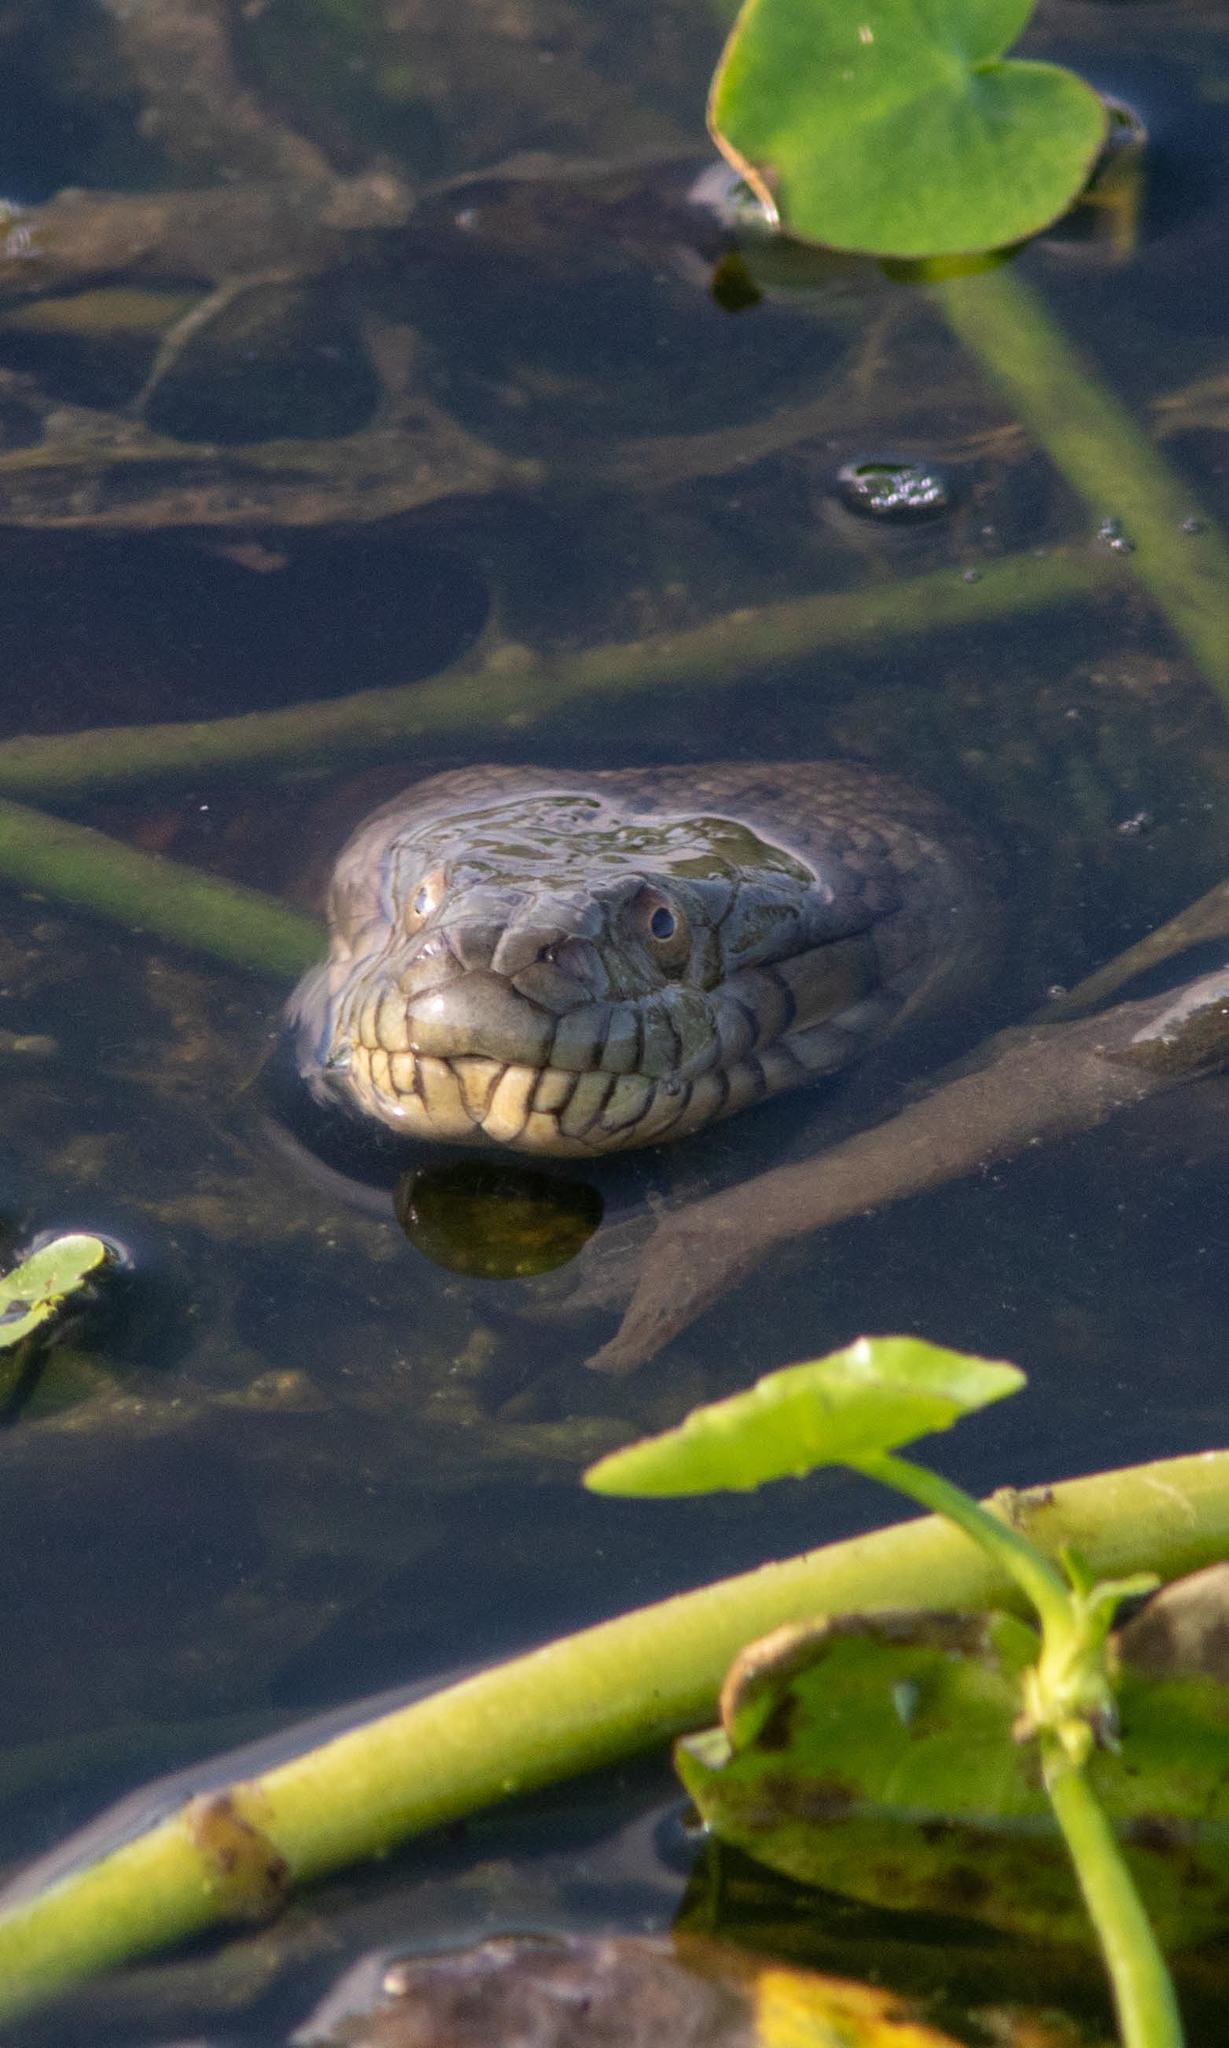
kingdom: Animalia
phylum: Chordata
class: Squamata
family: Colubridae
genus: Nerodia
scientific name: Nerodia rhombifer
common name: Diamondback water snake
